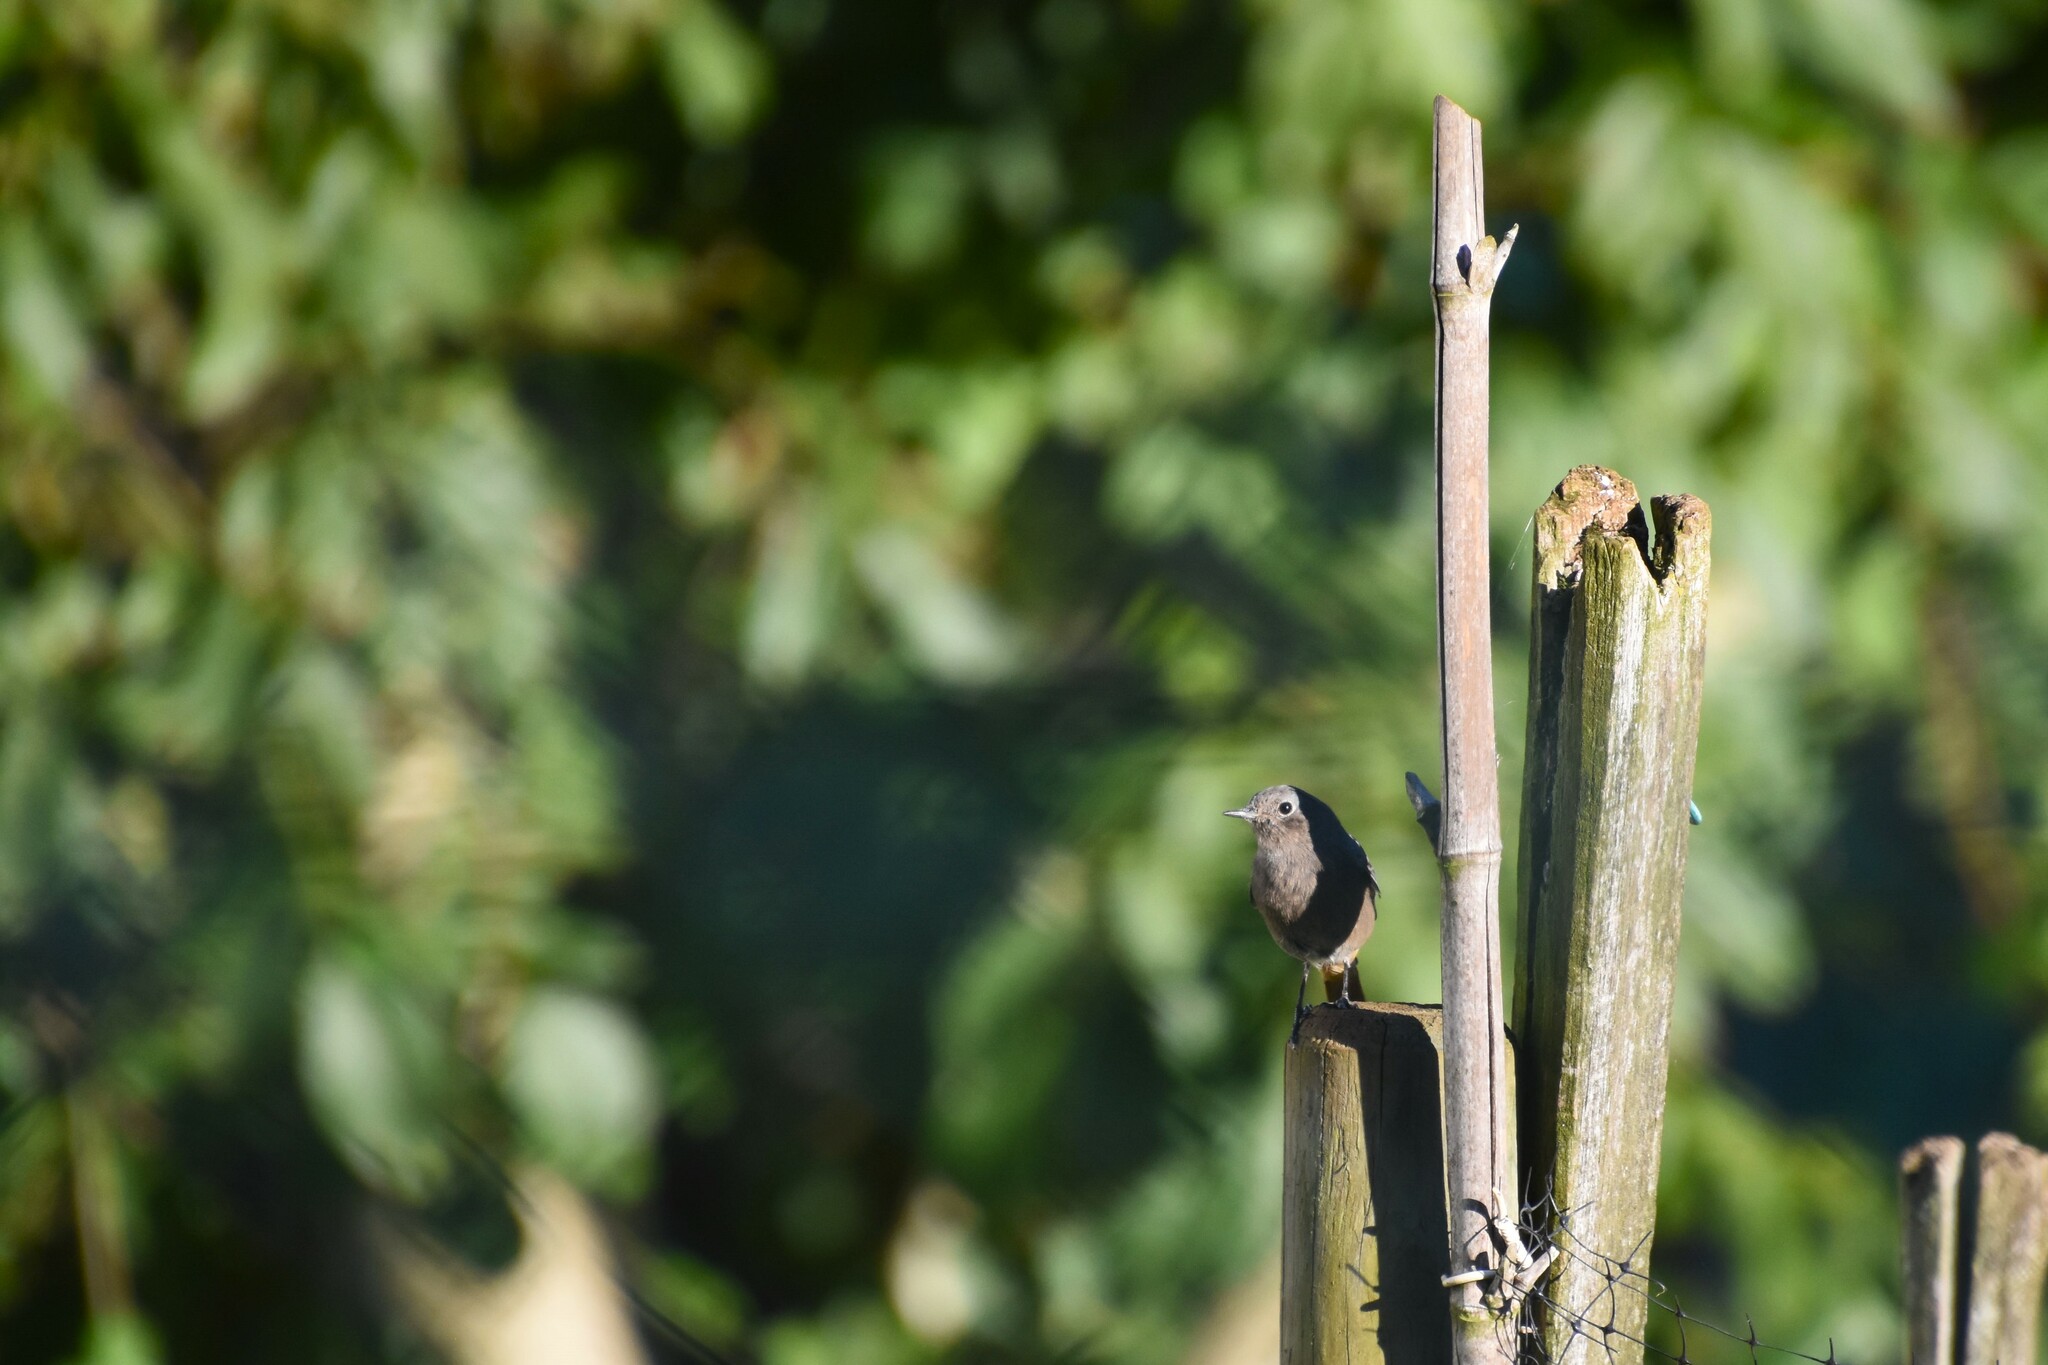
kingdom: Animalia
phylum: Chordata
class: Aves
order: Passeriformes
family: Muscicapidae
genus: Phoenicurus
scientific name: Phoenicurus ochruros
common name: Black redstart
